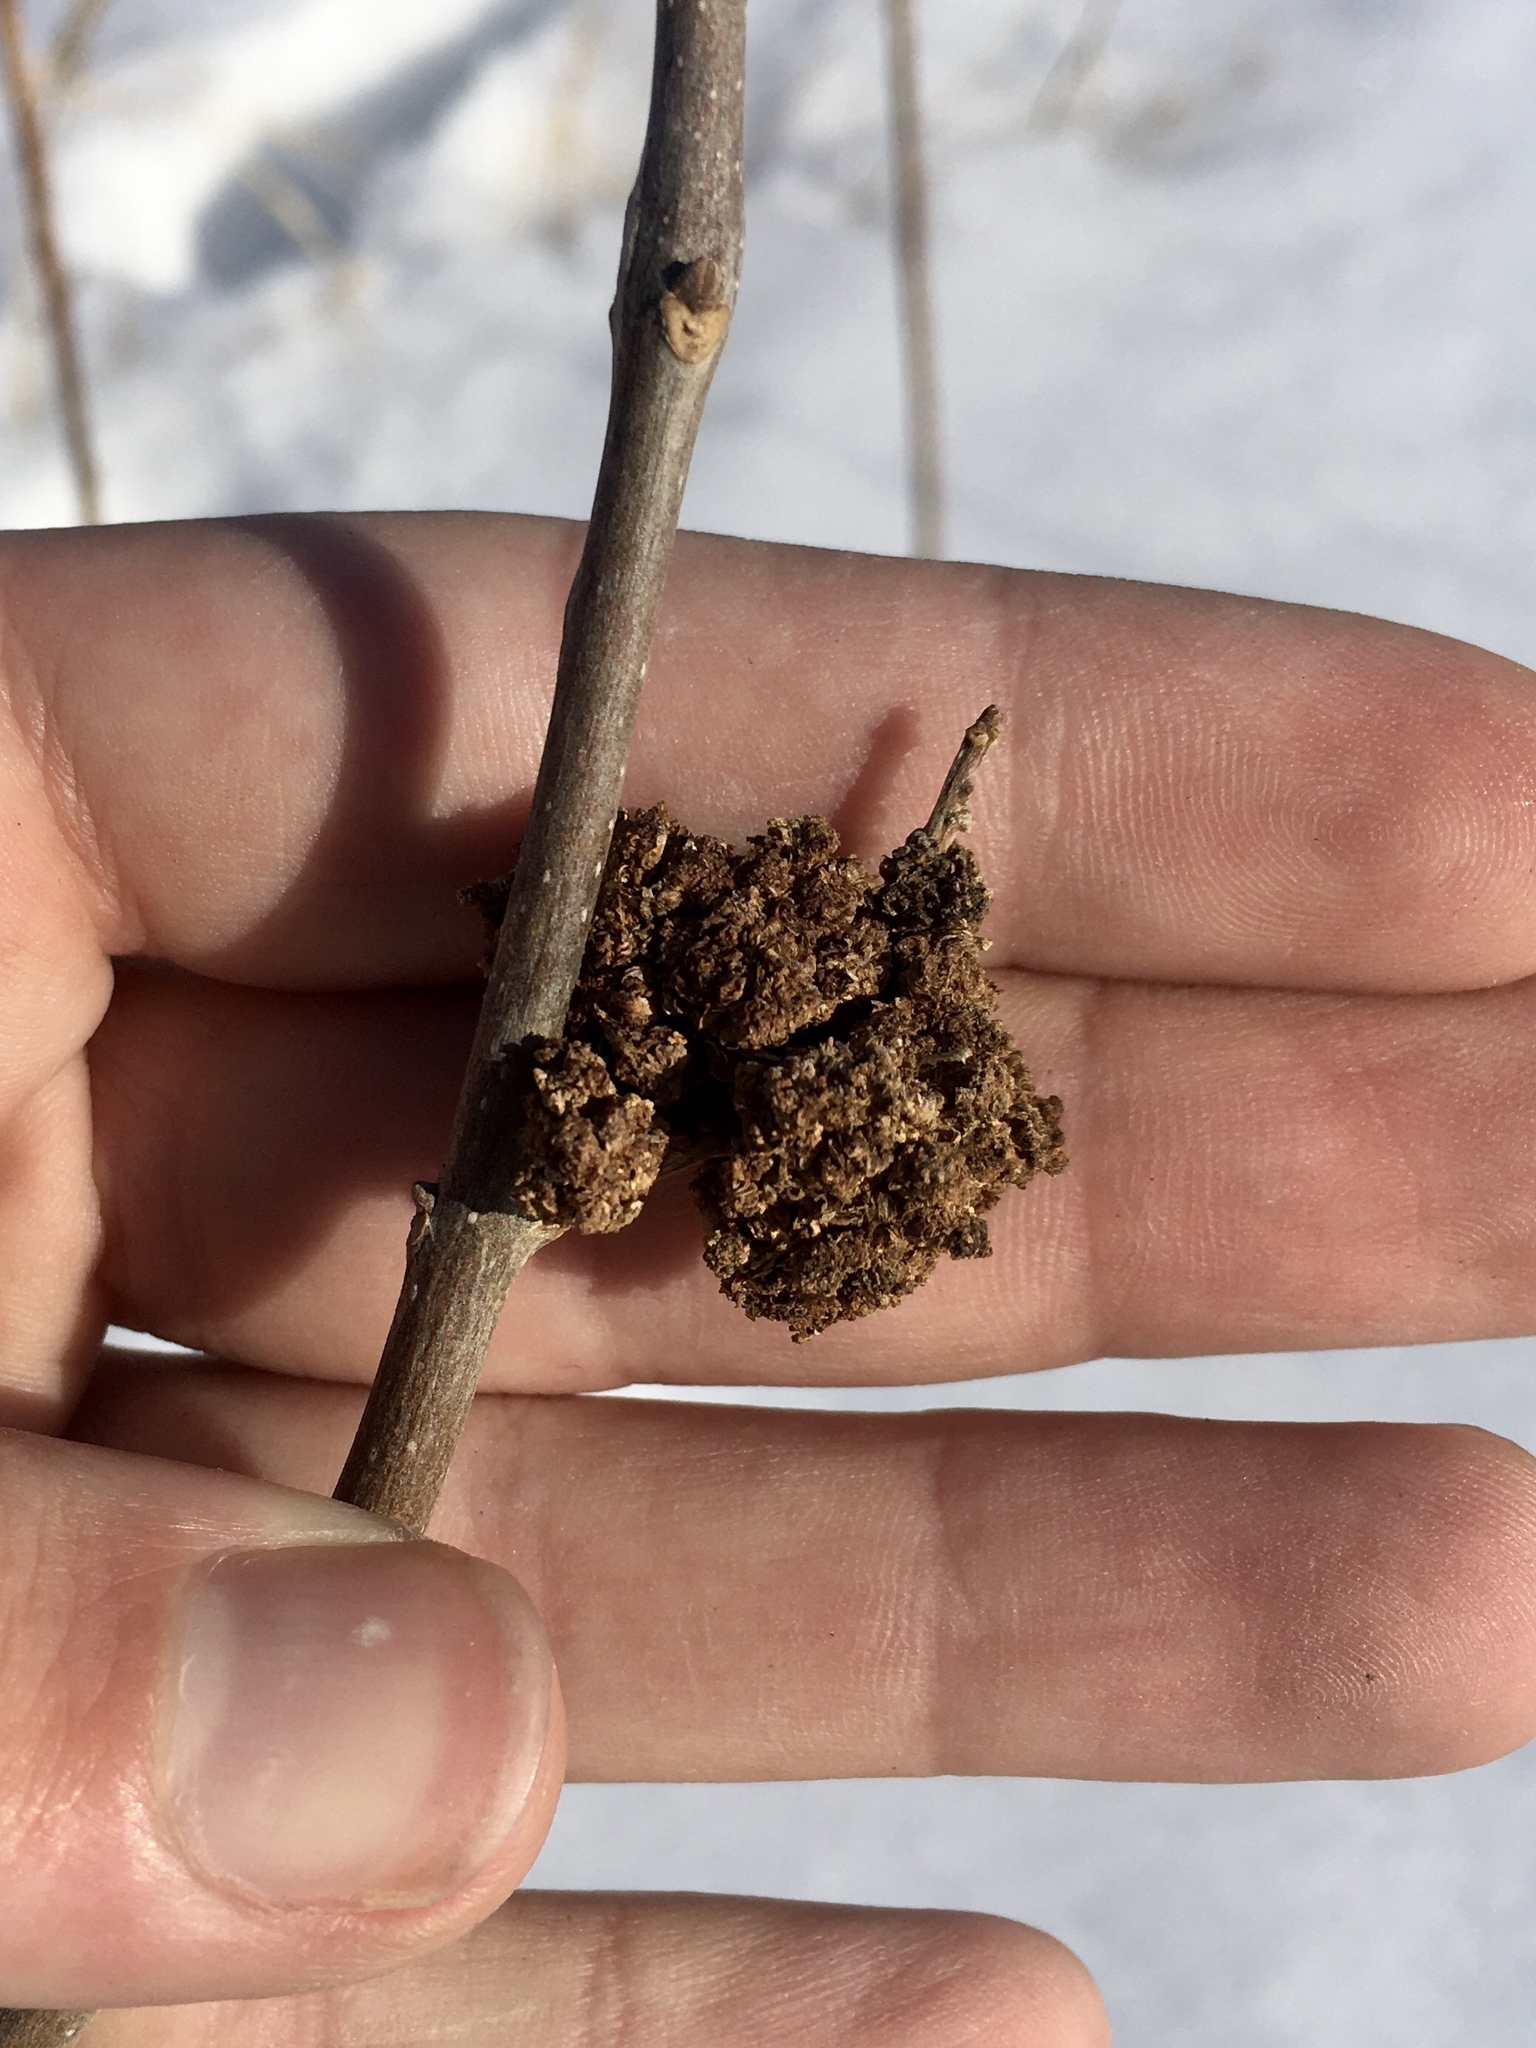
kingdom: Animalia
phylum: Arthropoda
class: Arachnida
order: Trombidiformes
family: Eriophyidae
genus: Aceria
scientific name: Aceria fraxiniflora
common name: Ash flower gall mite
